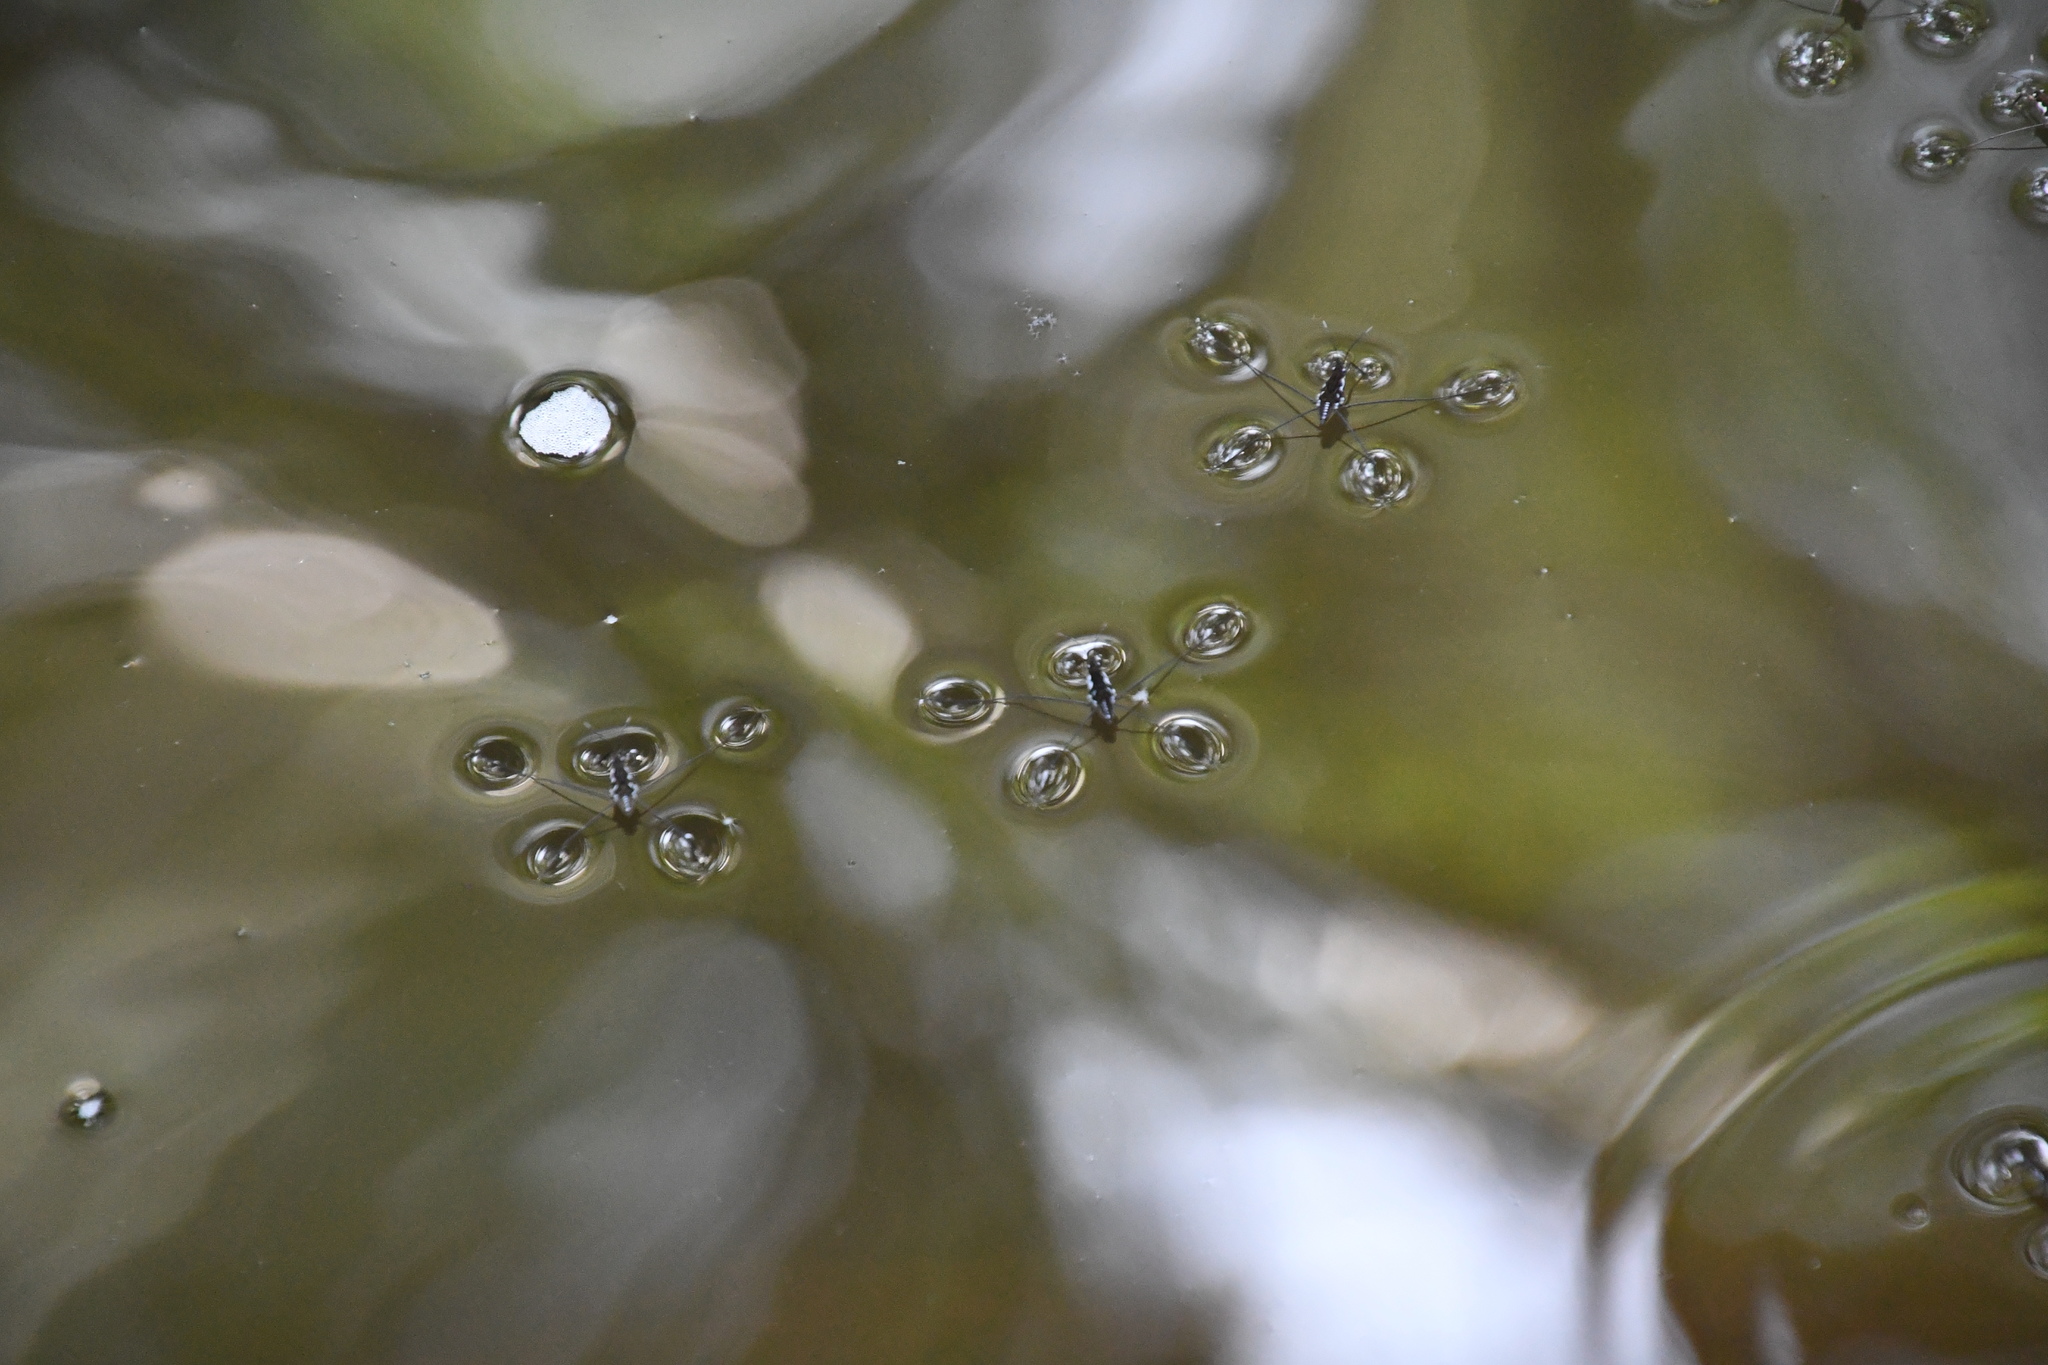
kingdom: Animalia
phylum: Arthropoda
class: Insecta
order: Hemiptera
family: Gerridae
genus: Tenagogerris
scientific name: Tenagogerris euphrosyne
